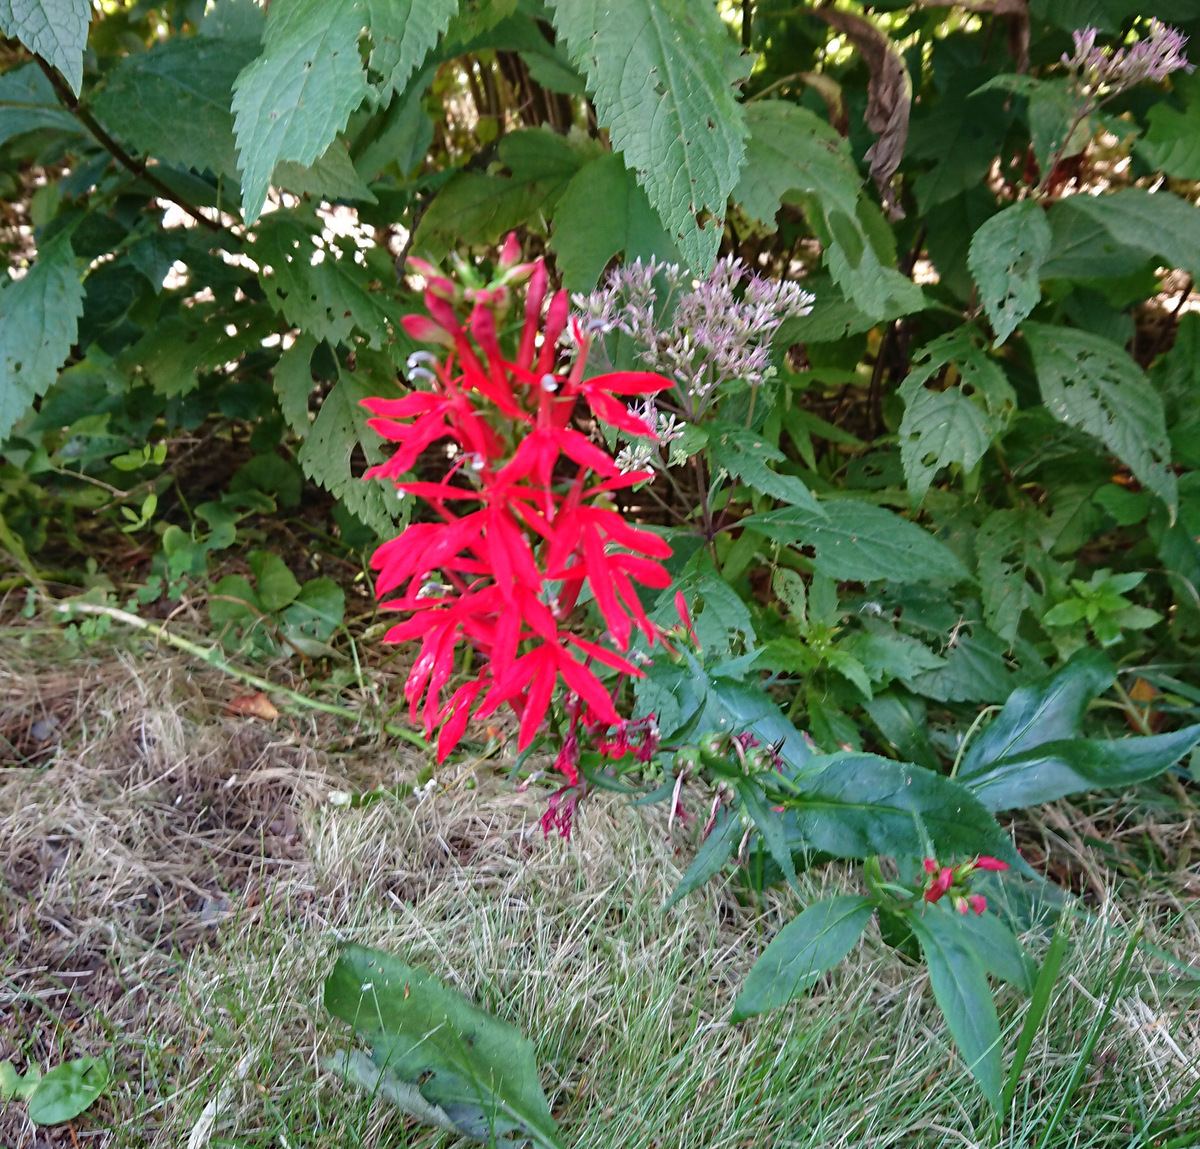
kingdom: Plantae
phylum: Tracheophyta
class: Magnoliopsida
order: Asterales
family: Campanulaceae
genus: Lobelia
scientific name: Lobelia cardinalis
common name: Cardinal flower
